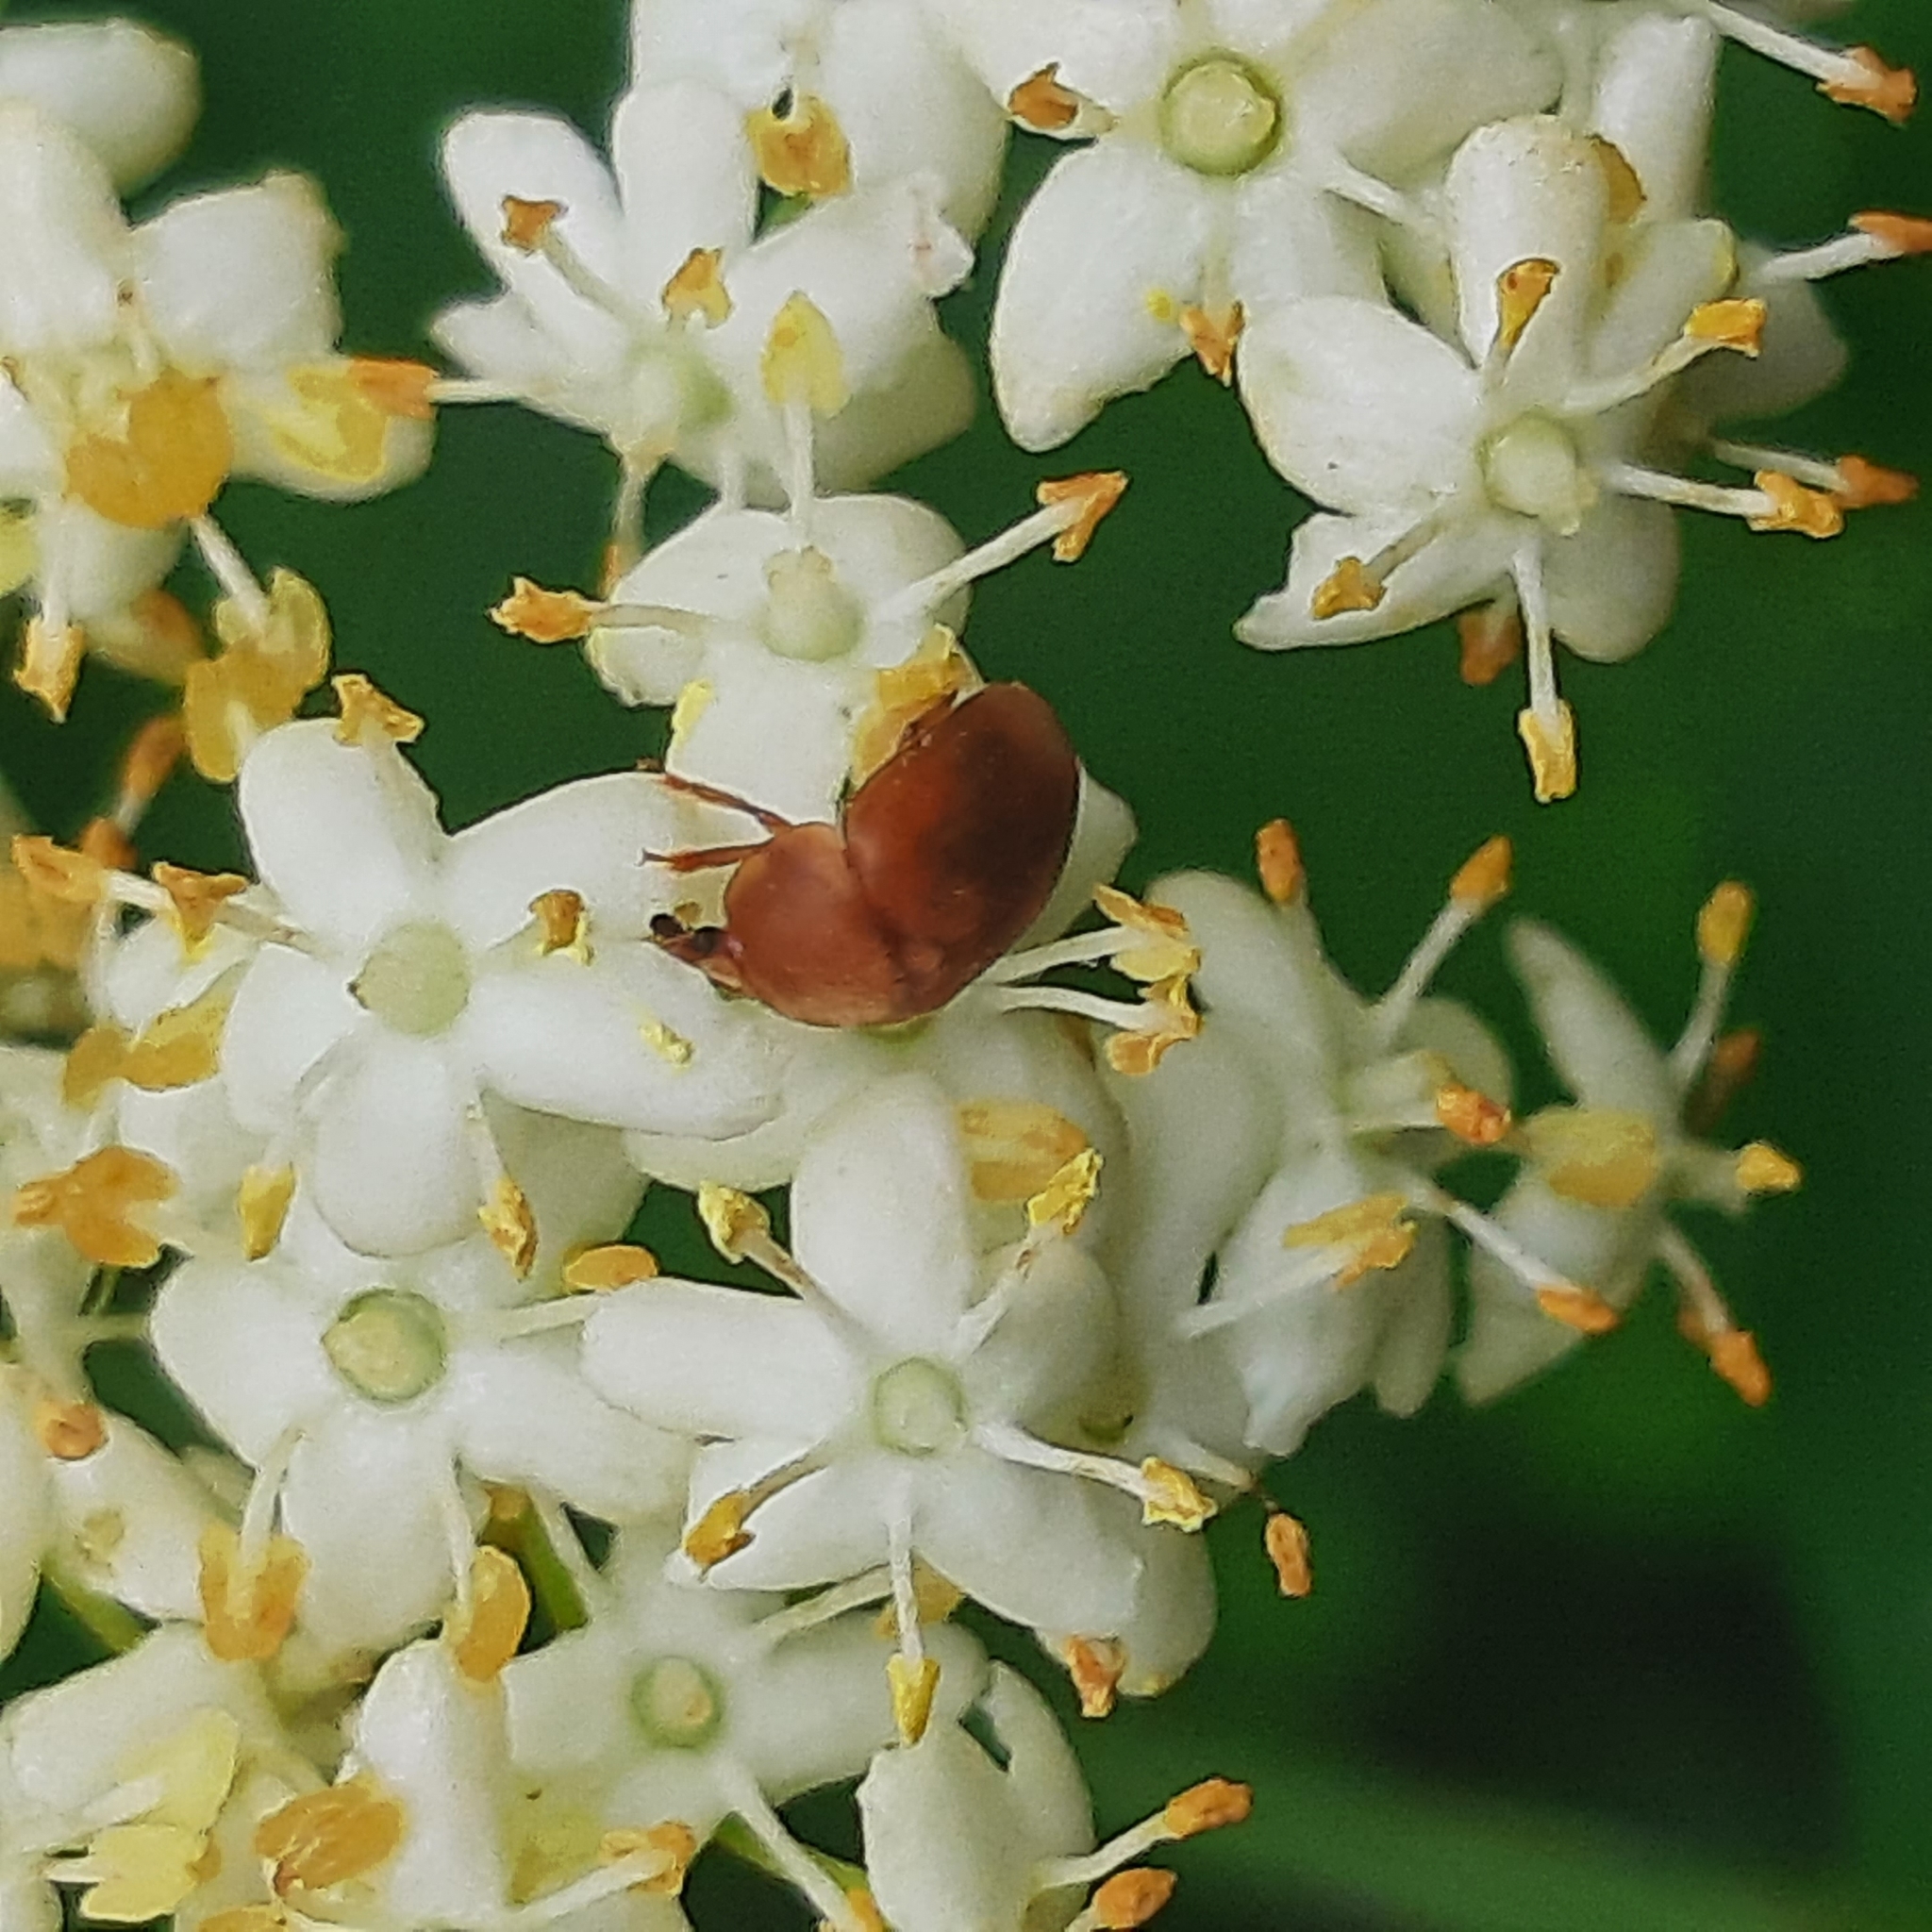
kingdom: Animalia
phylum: Arthropoda
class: Insecta
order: Coleoptera
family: Nitidulidae
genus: Cychramus
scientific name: Cychramus luteus
